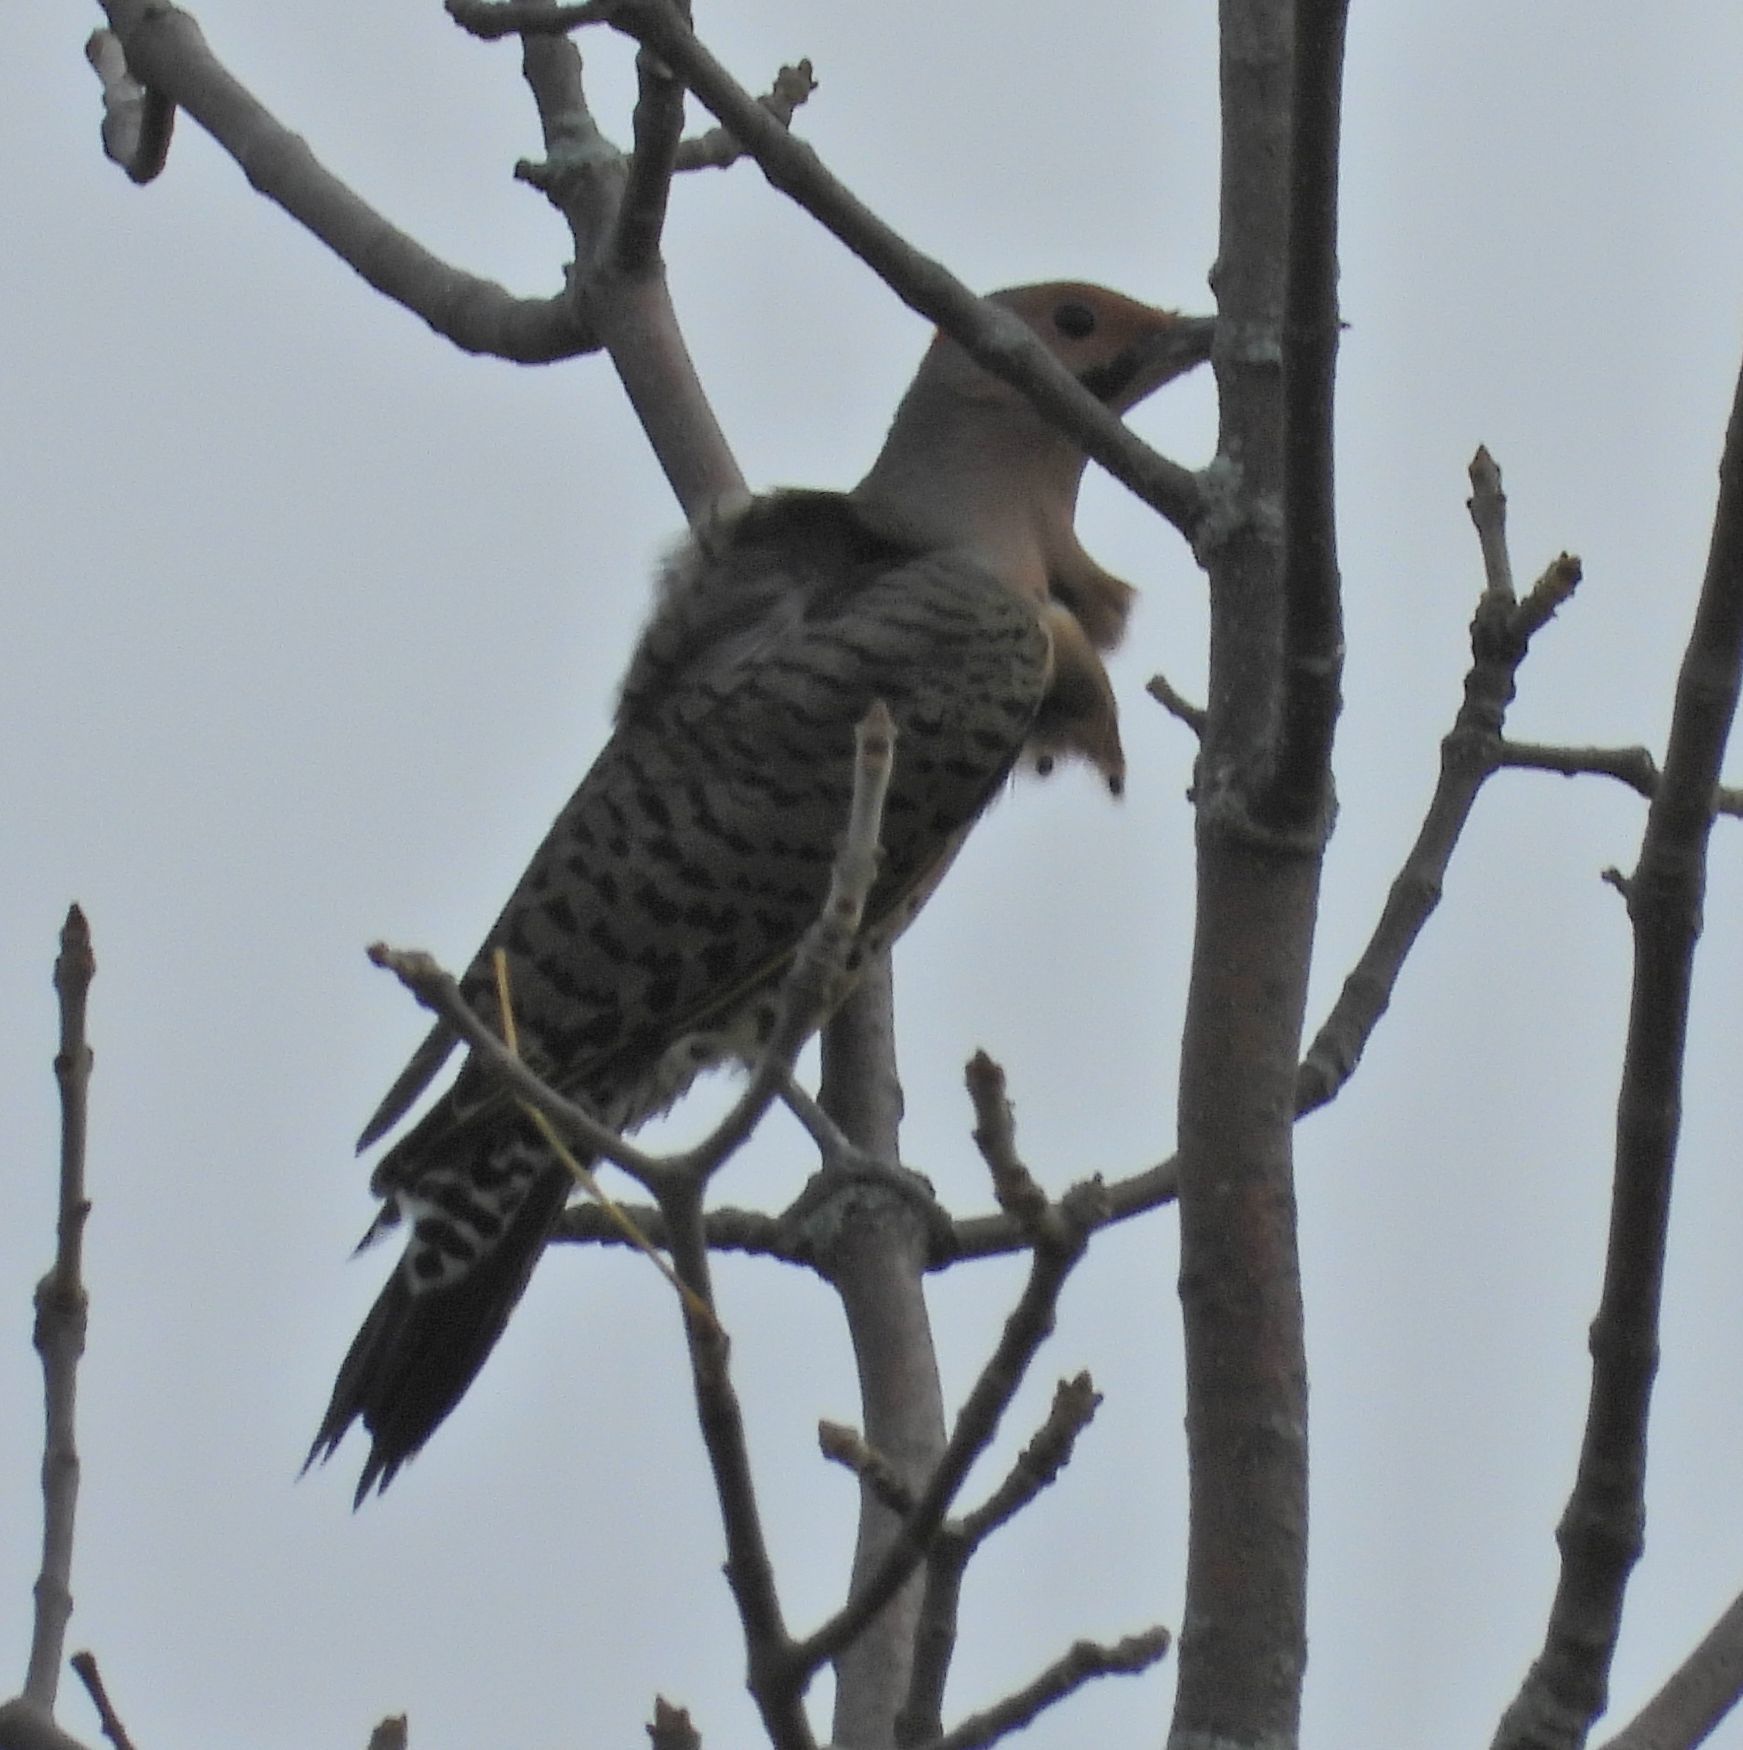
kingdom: Animalia
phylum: Chordata
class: Aves
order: Piciformes
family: Picidae
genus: Colaptes
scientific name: Colaptes auratus
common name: Northern flicker
